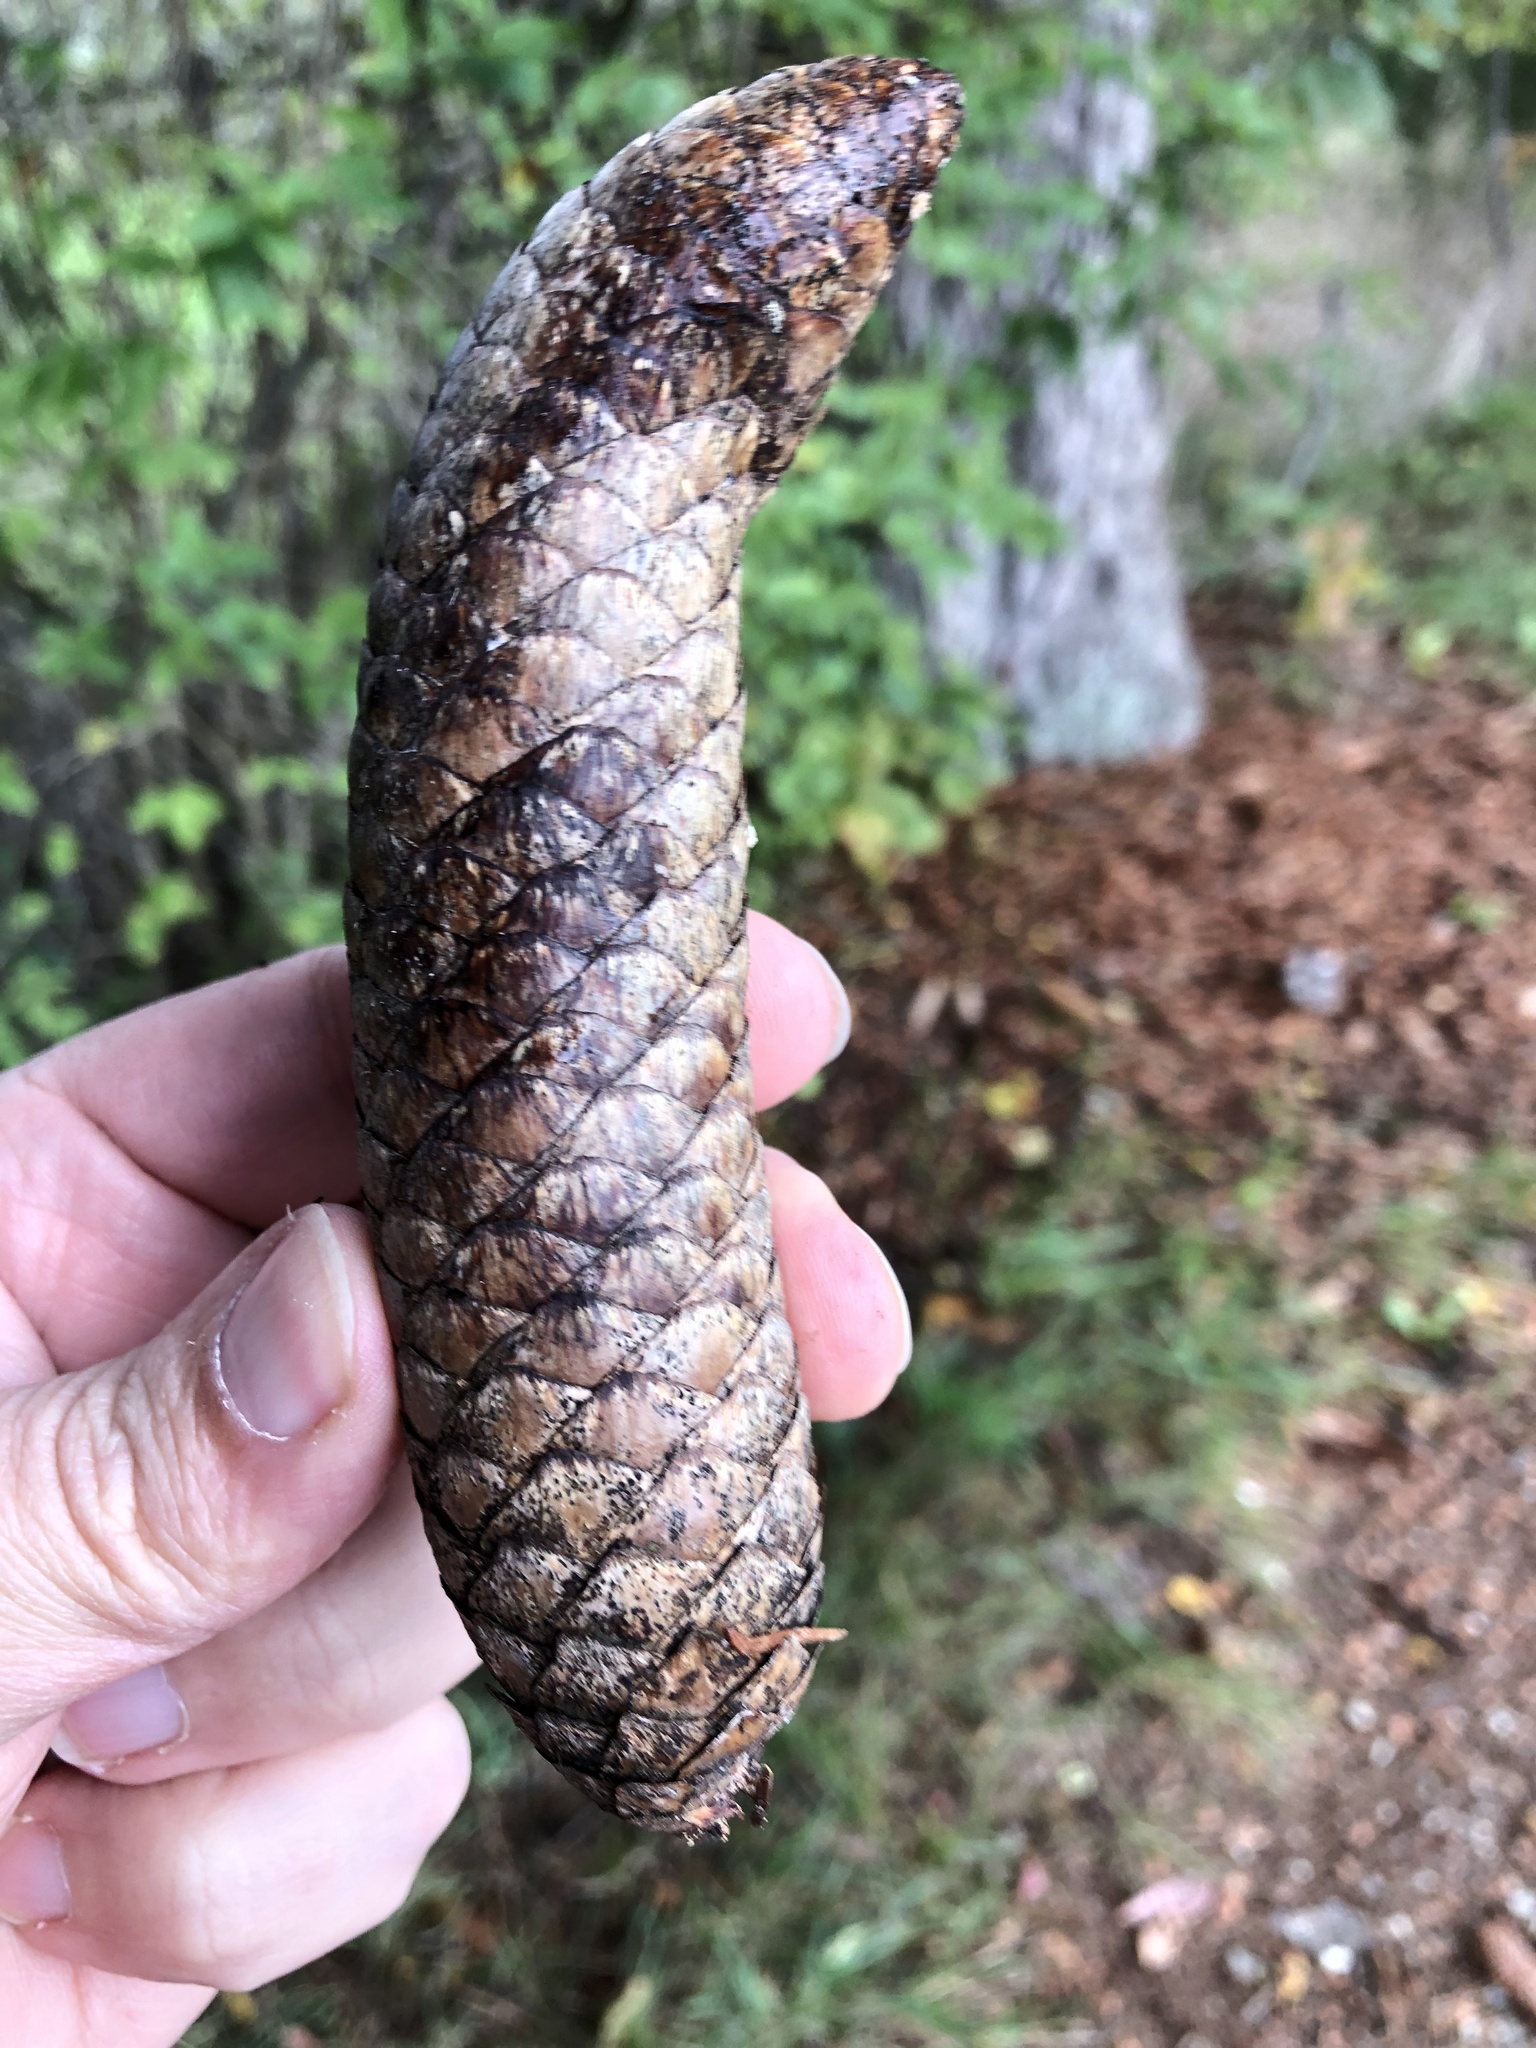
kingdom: Plantae
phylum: Tracheophyta
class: Pinopsida
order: Pinales
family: Pinaceae
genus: Picea
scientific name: Picea abies
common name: Norway spruce
